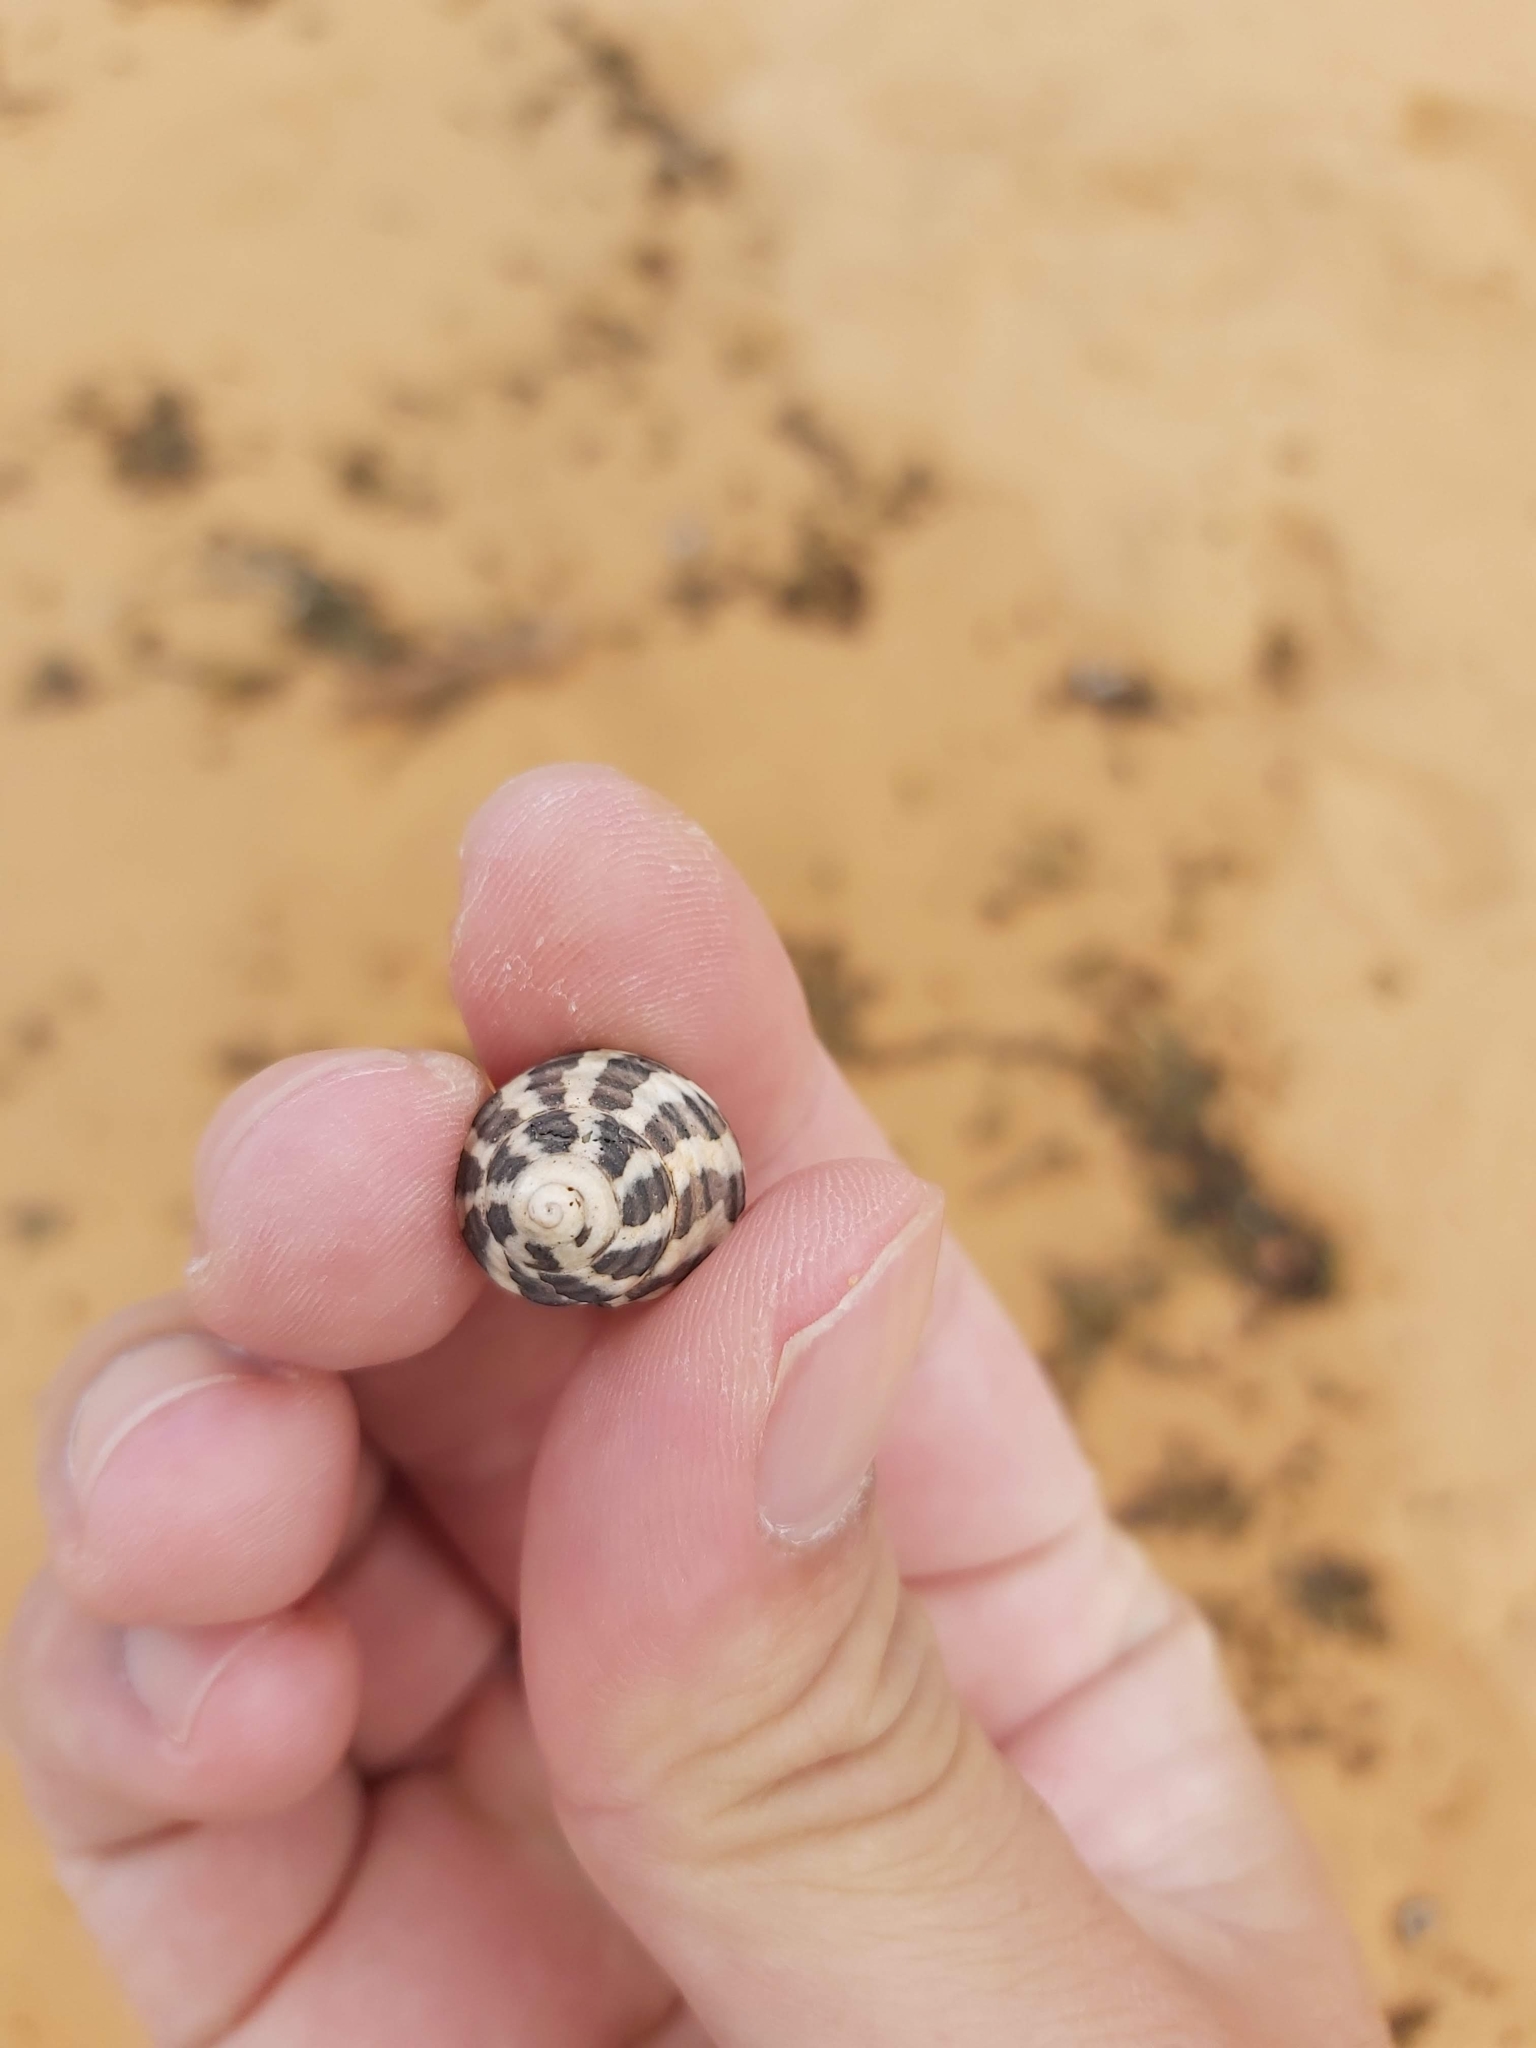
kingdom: Animalia
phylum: Mollusca
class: Gastropoda
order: Trochida
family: Trochidae
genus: Austrocochlea
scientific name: Austrocochlea porcata
